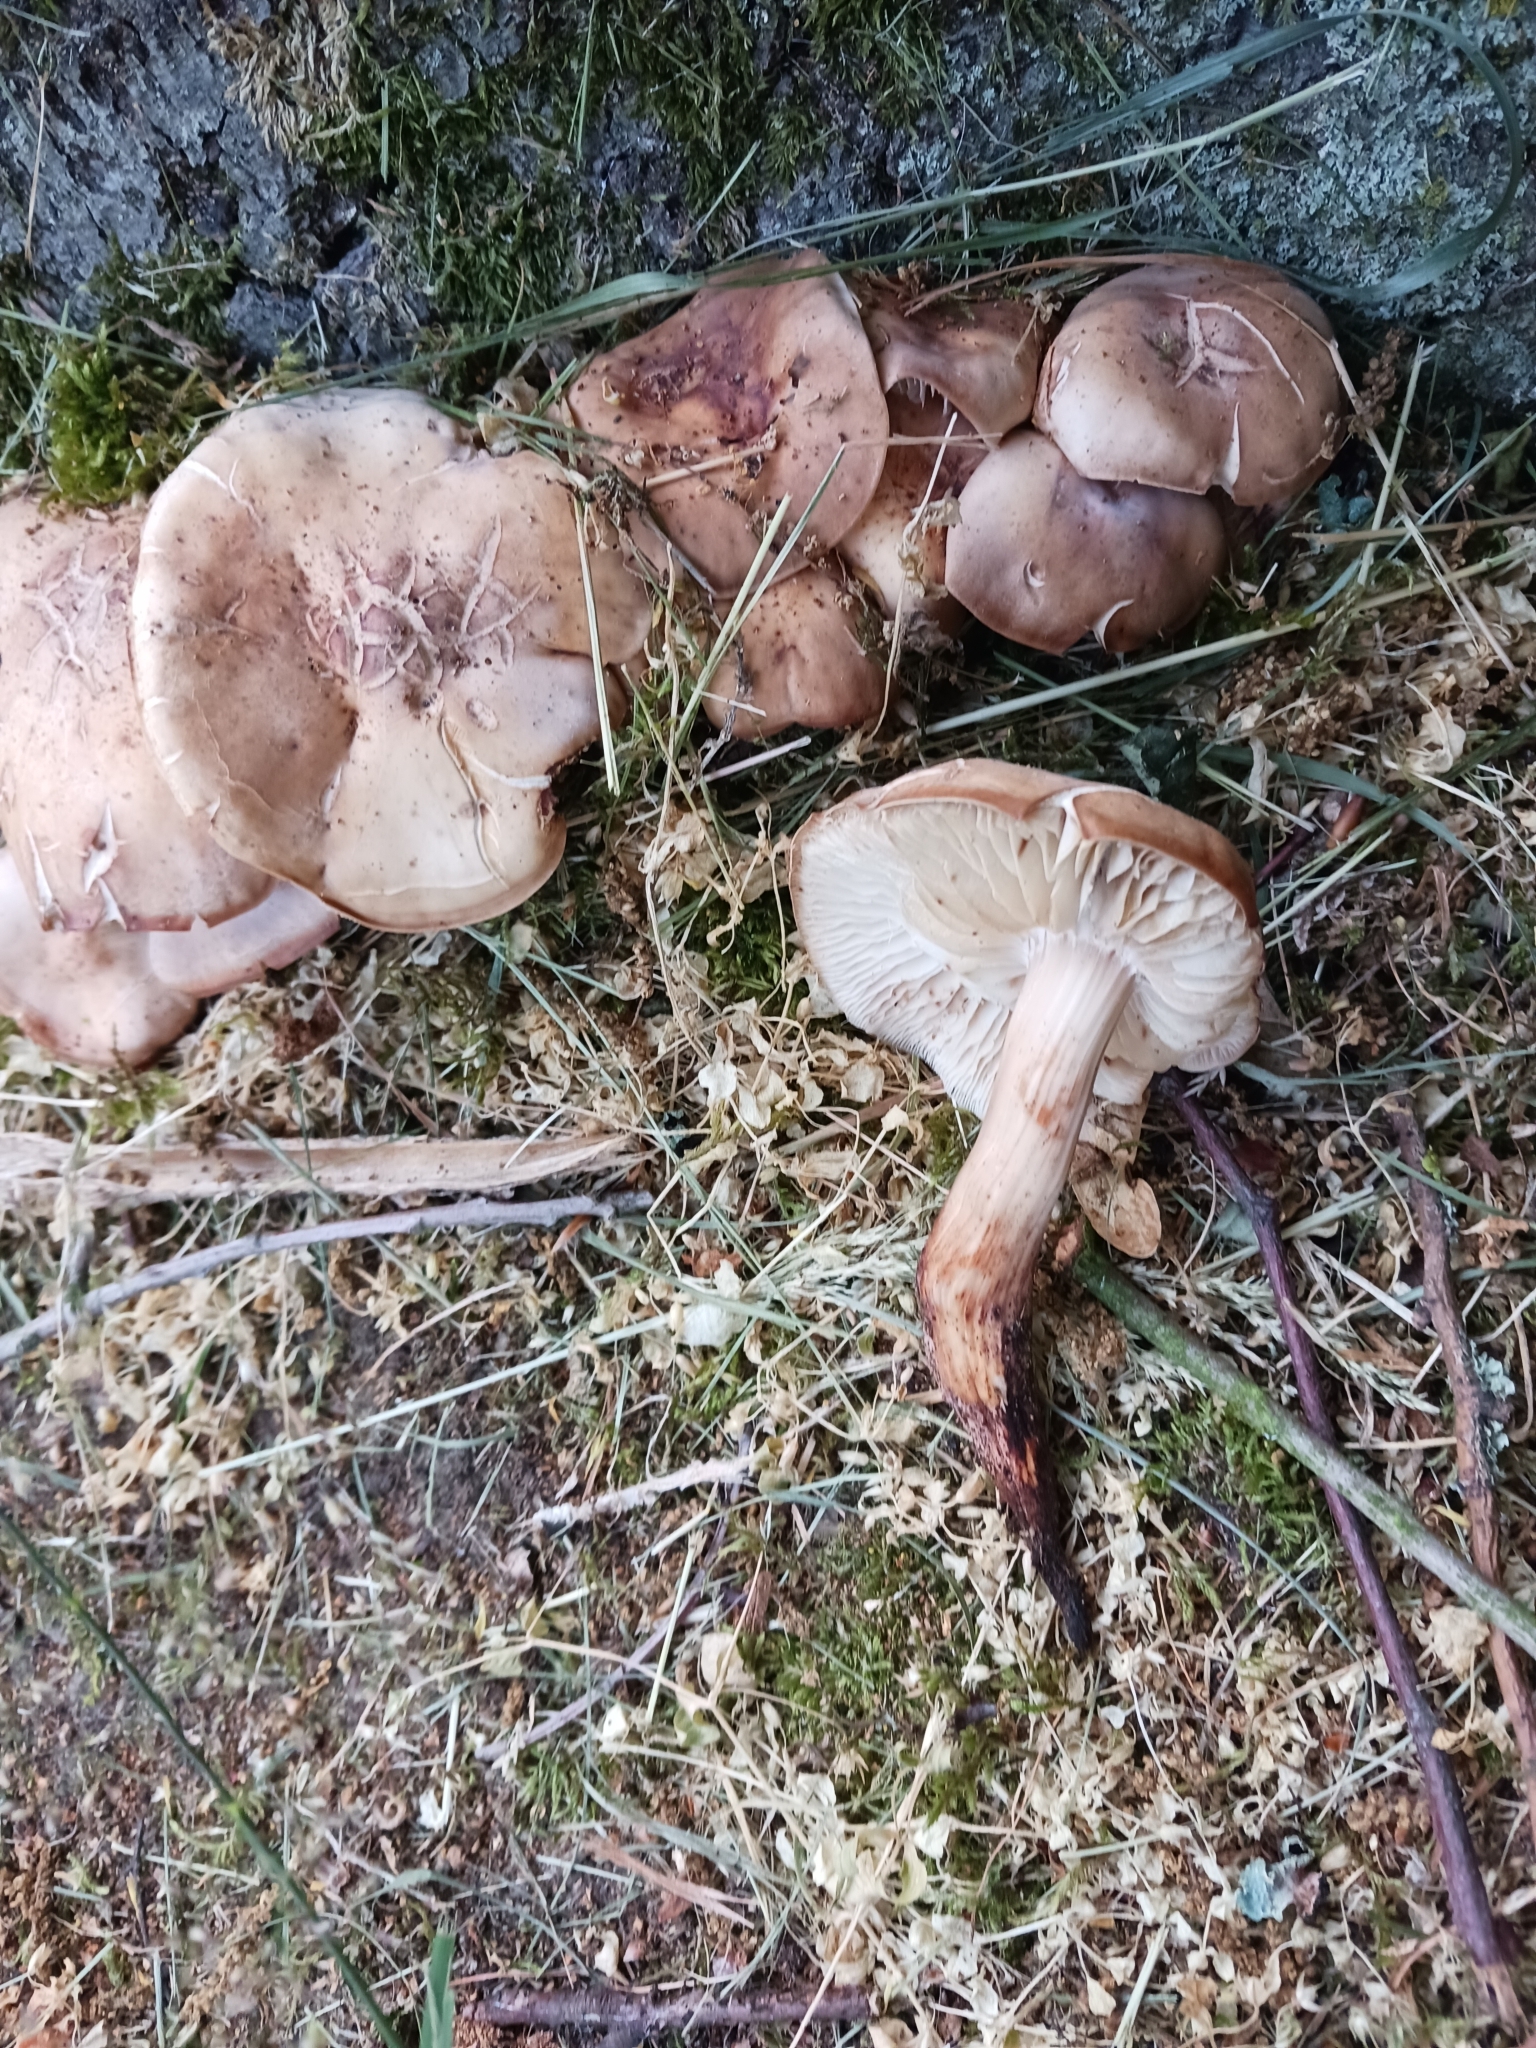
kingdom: Fungi
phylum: Basidiomycota
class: Agaricomycetes
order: Agaricales
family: Omphalotaceae
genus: Gymnopus
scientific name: Gymnopus fusipes
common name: Spindle shank
